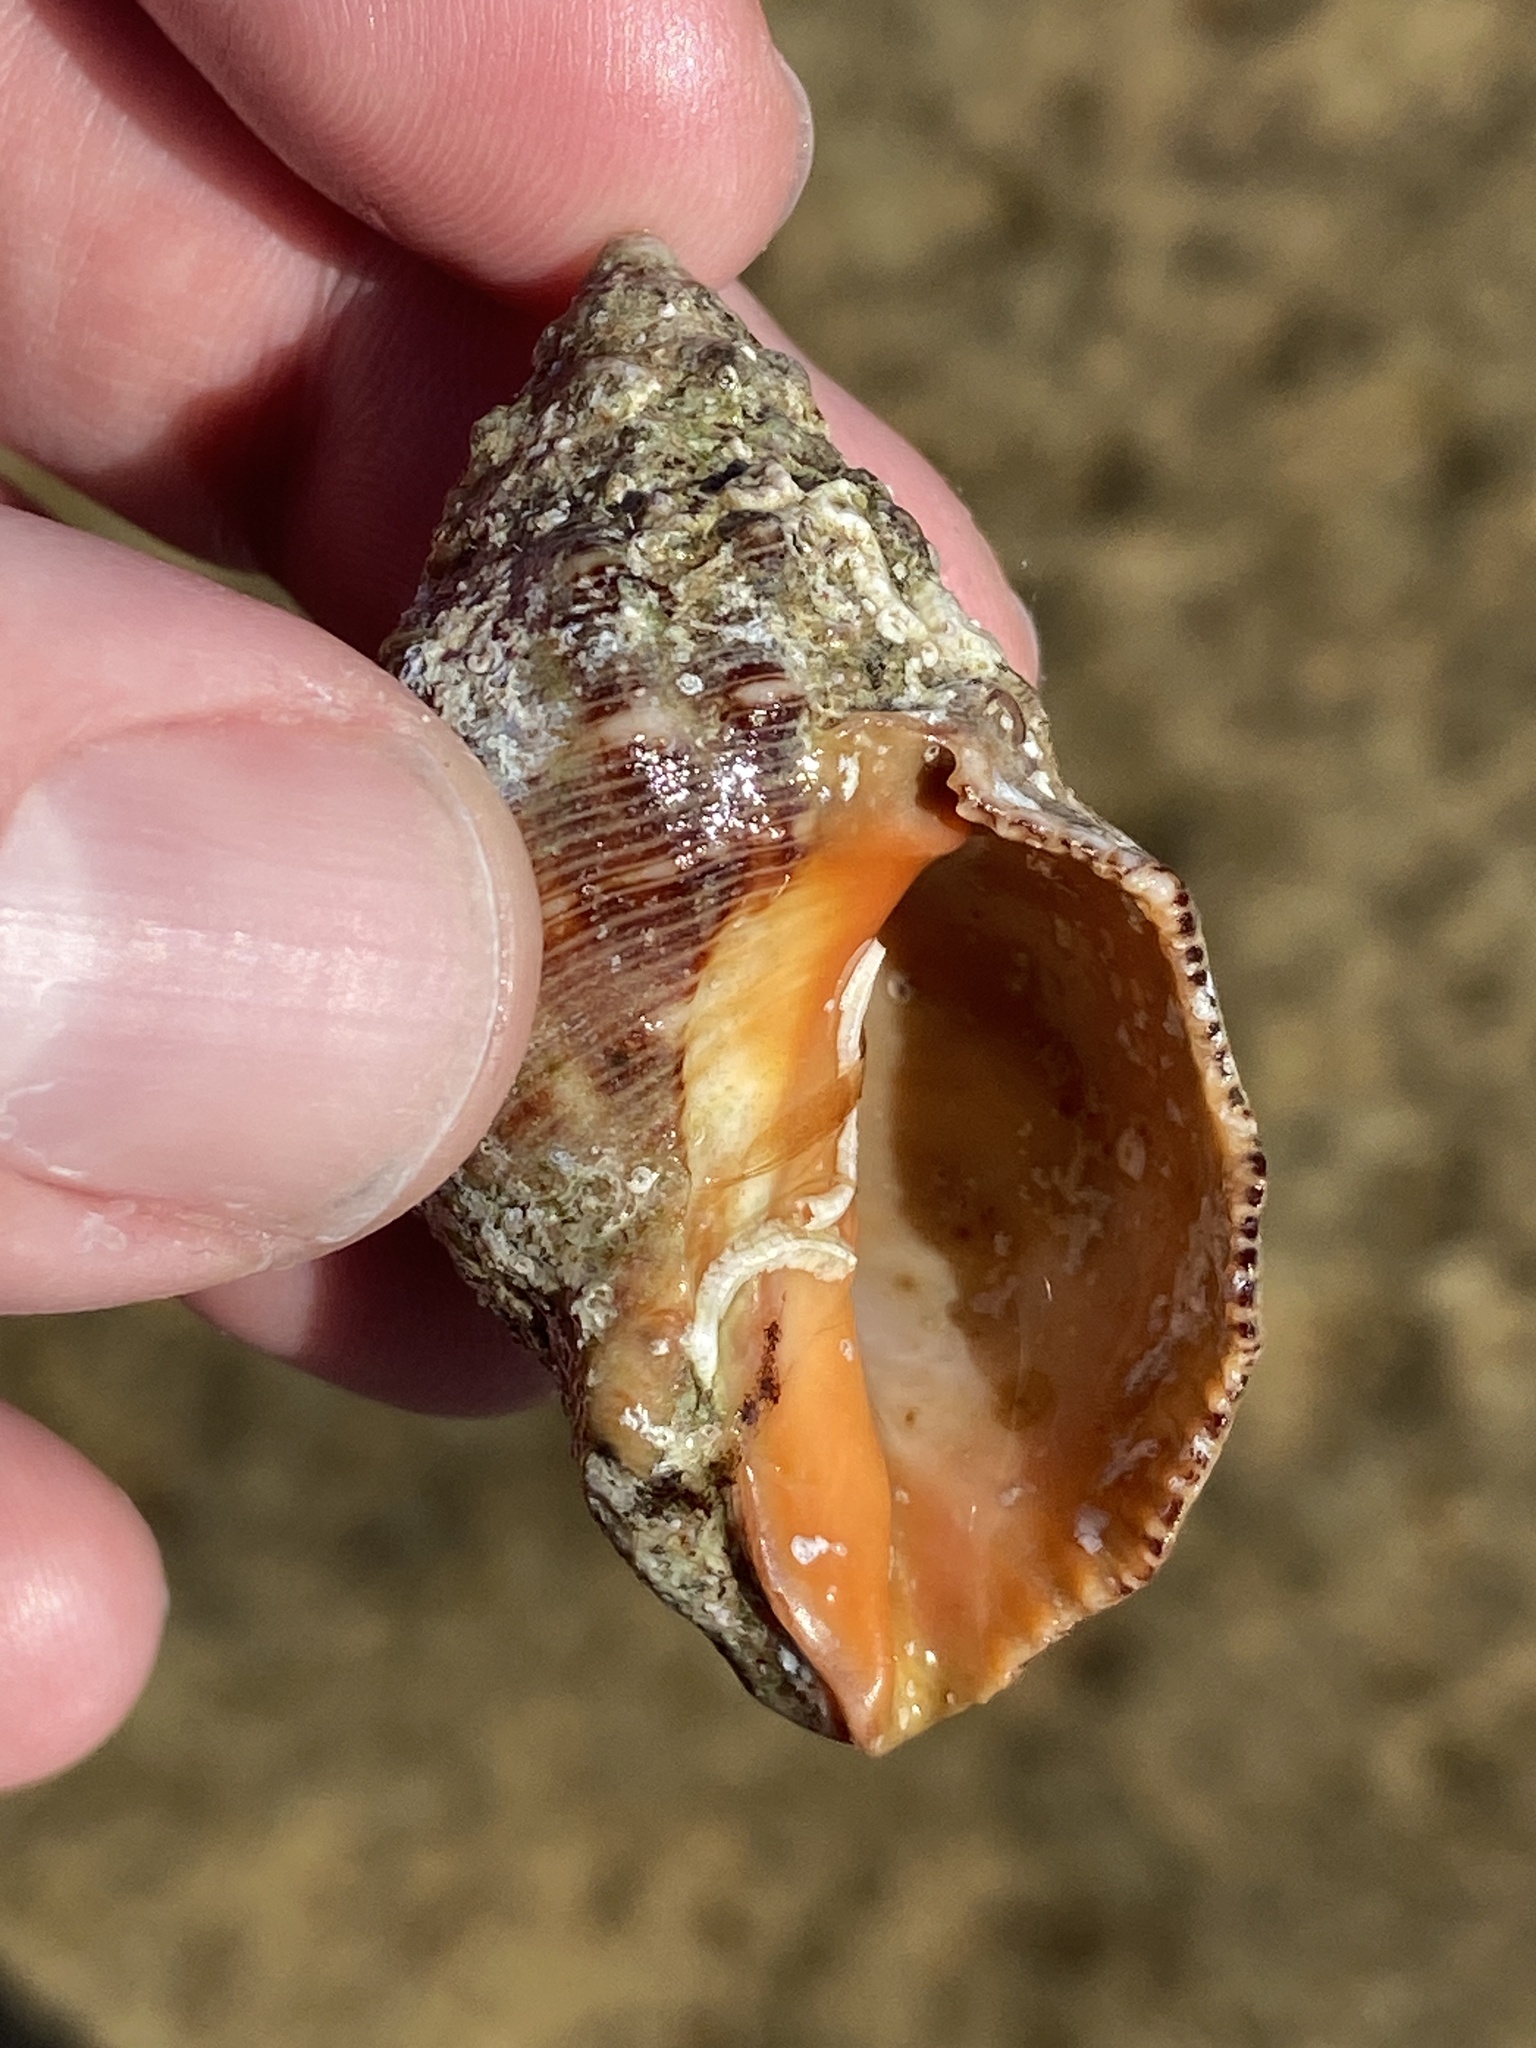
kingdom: Animalia
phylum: Mollusca
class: Gastropoda
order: Neogastropoda
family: Muricidae
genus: Stramonita
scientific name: Stramonita haemastoma
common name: Florida dog winkle
